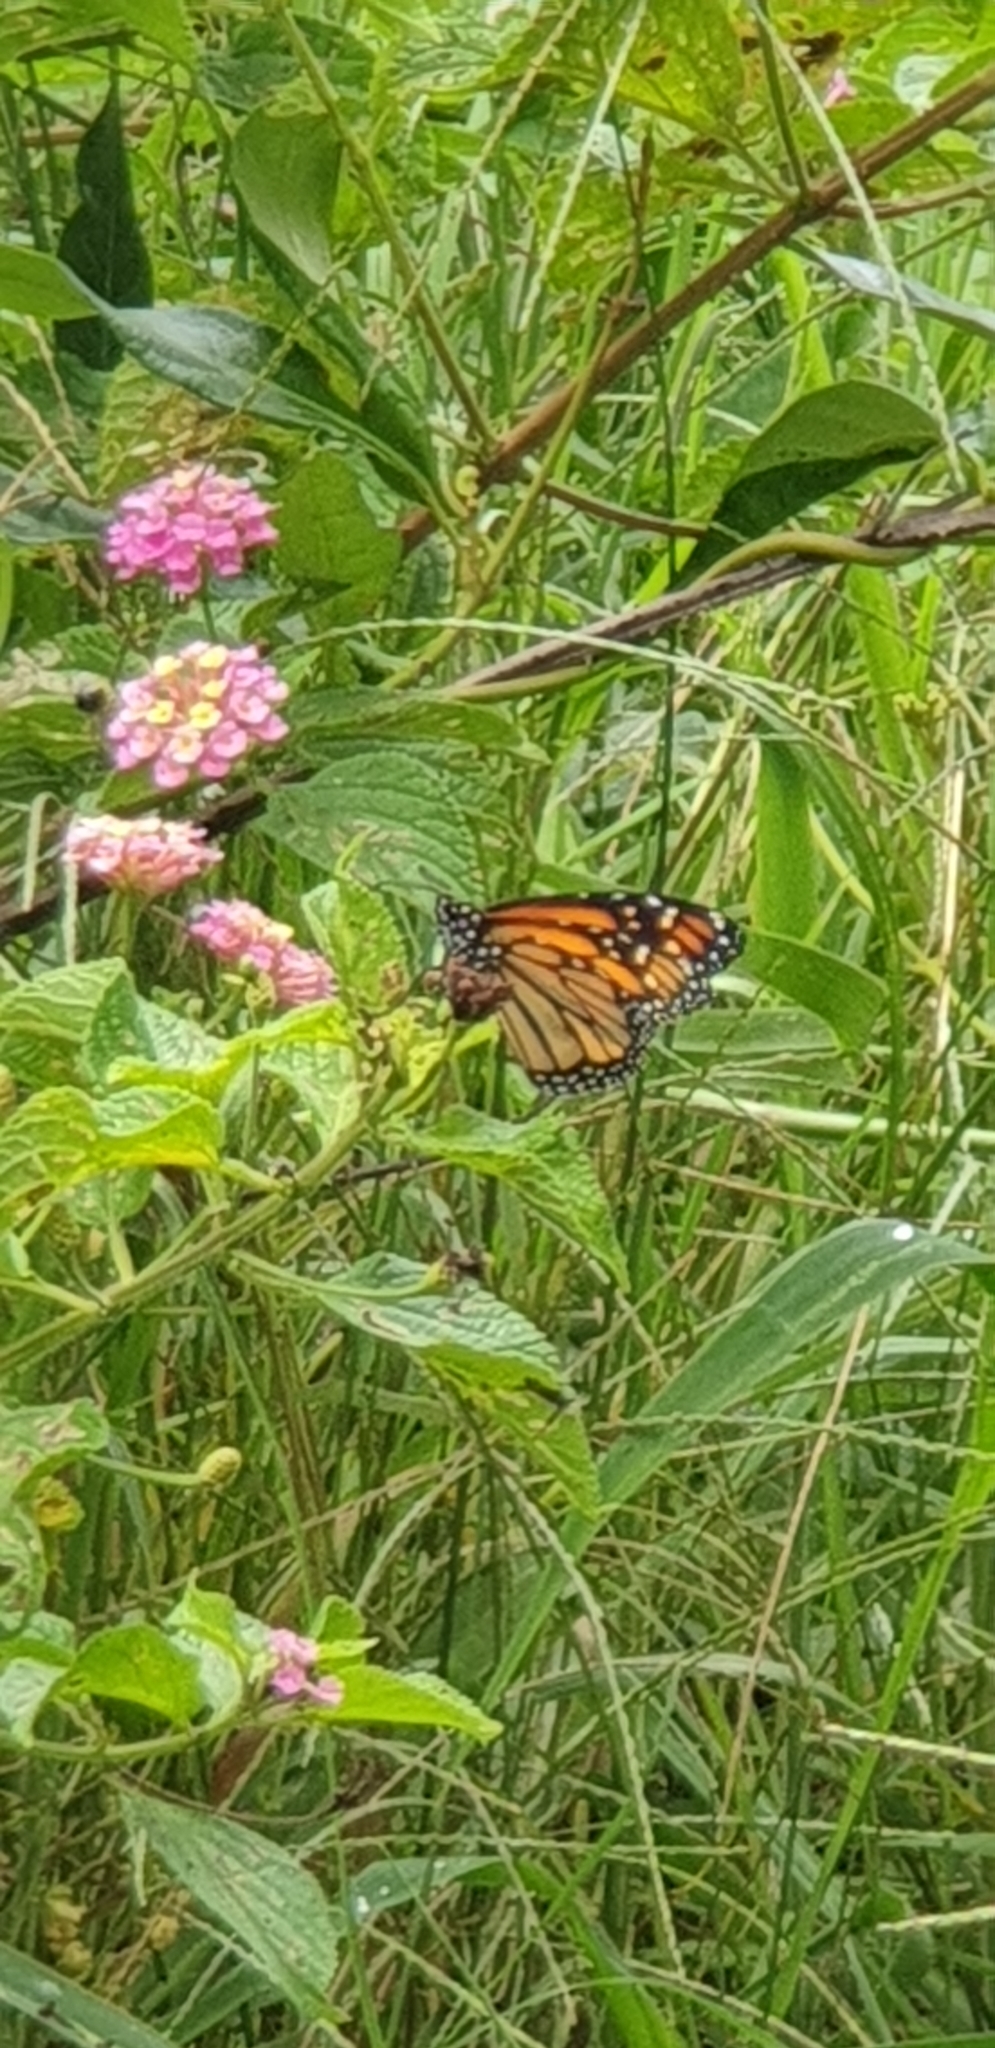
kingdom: Animalia
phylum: Arthropoda
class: Insecta
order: Lepidoptera
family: Nymphalidae
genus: Danaus
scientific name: Danaus plexippus
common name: Monarch
